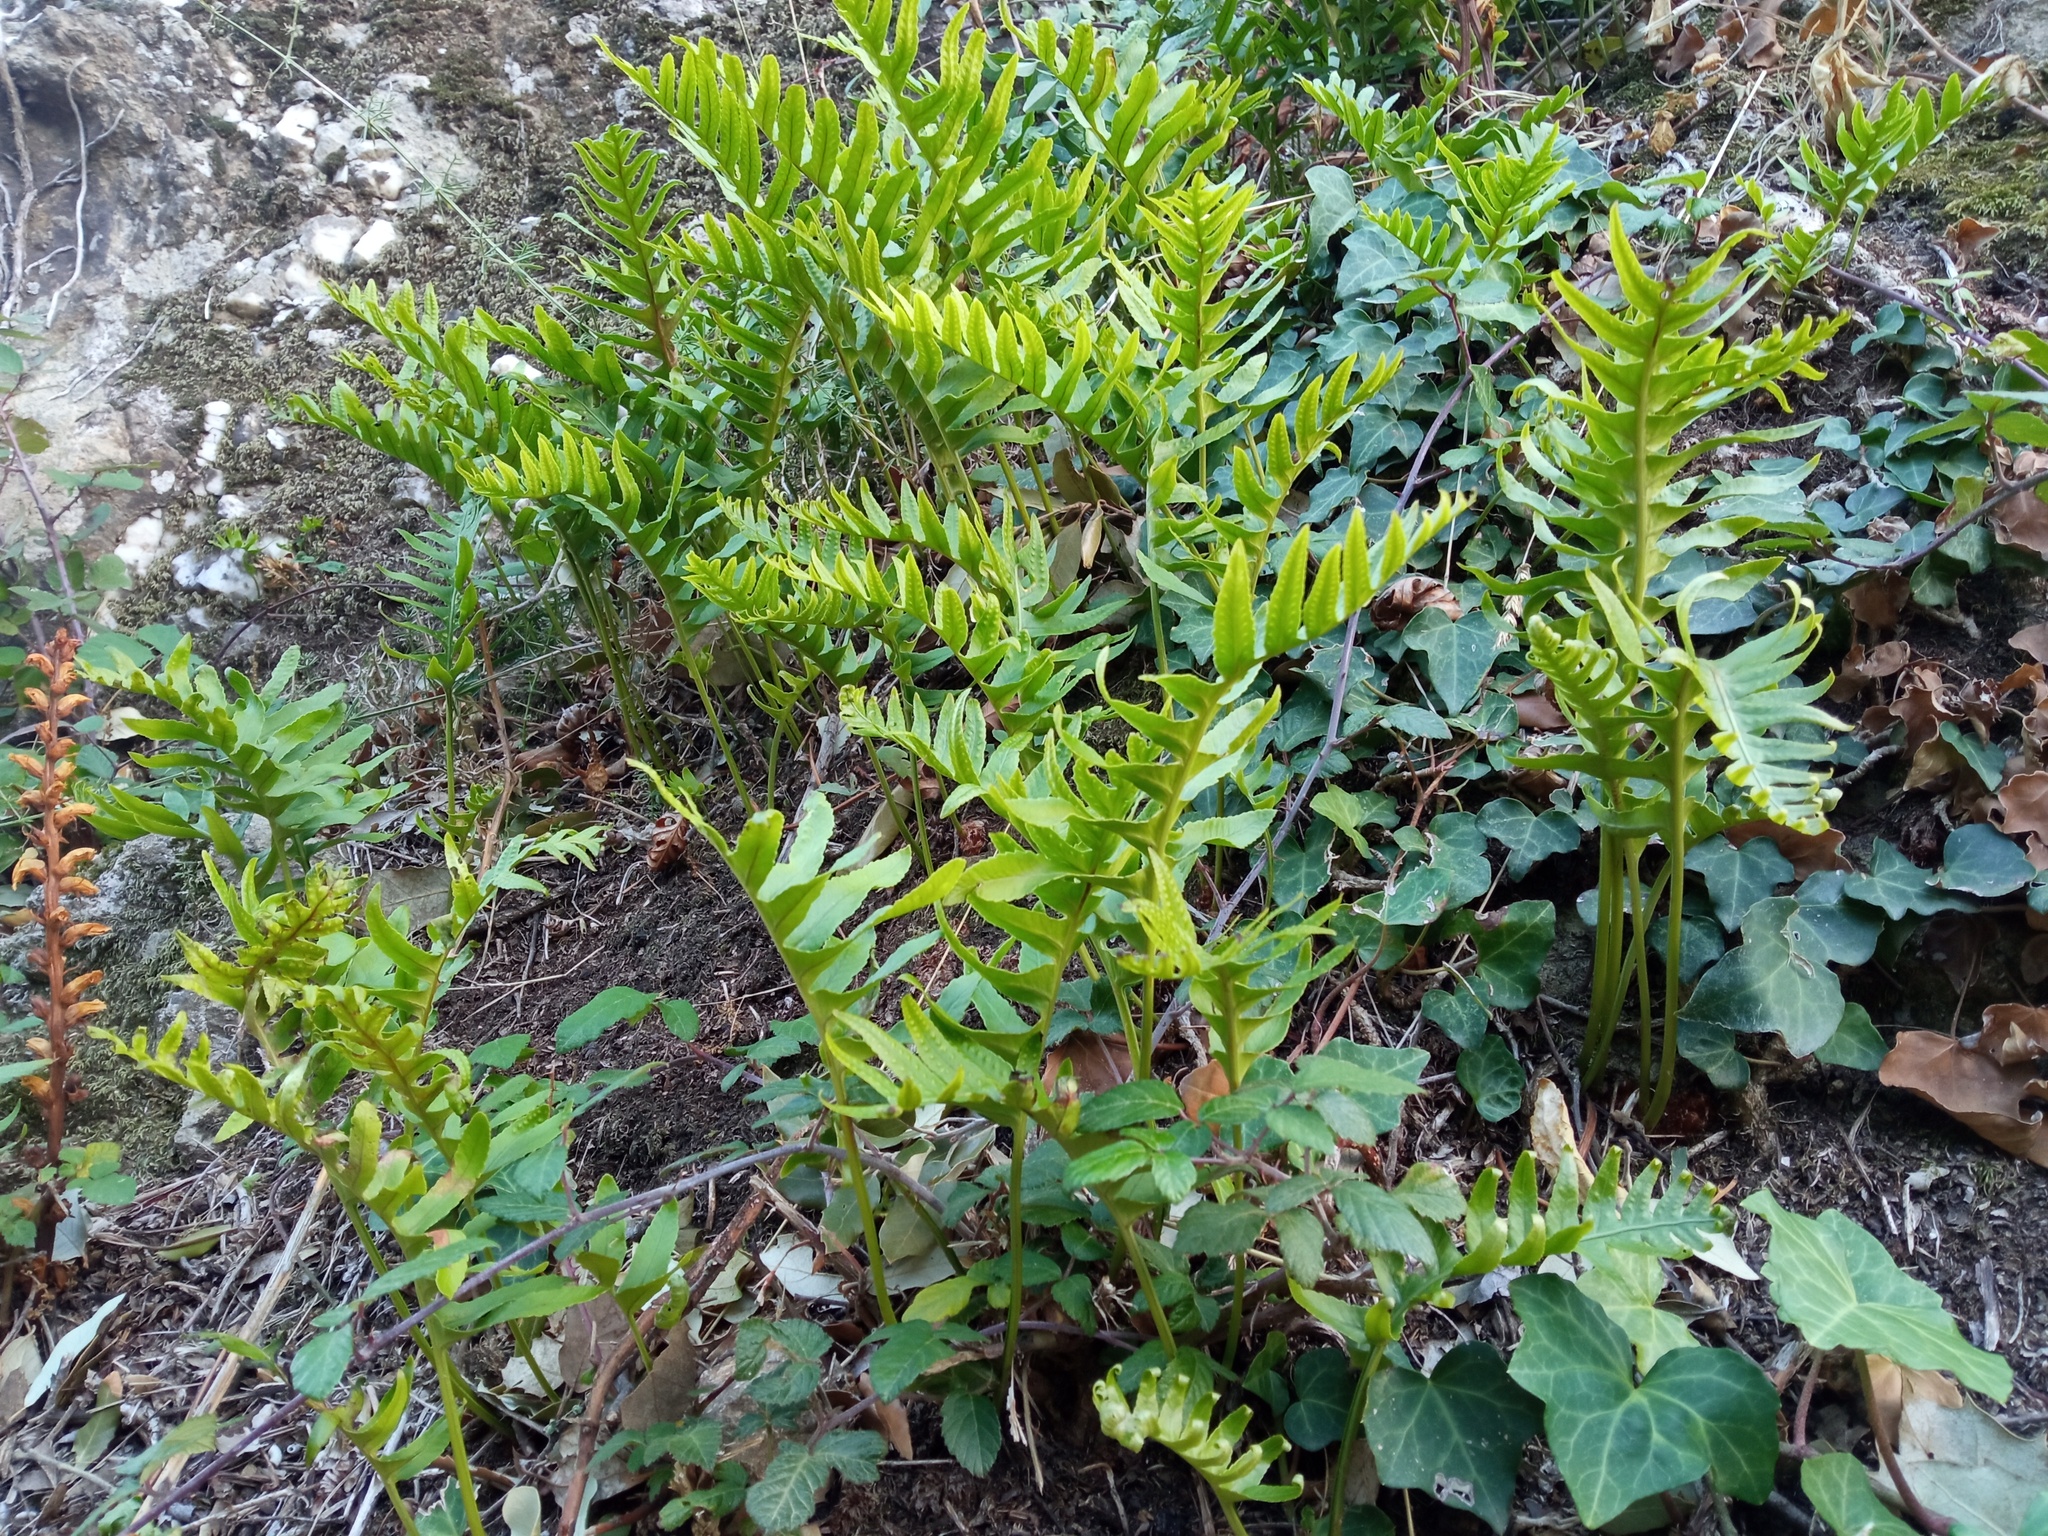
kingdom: Plantae
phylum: Tracheophyta
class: Polypodiopsida
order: Polypodiales
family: Polypodiaceae
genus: Polypodium
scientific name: Polypodium cambricum
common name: Southern polypody
